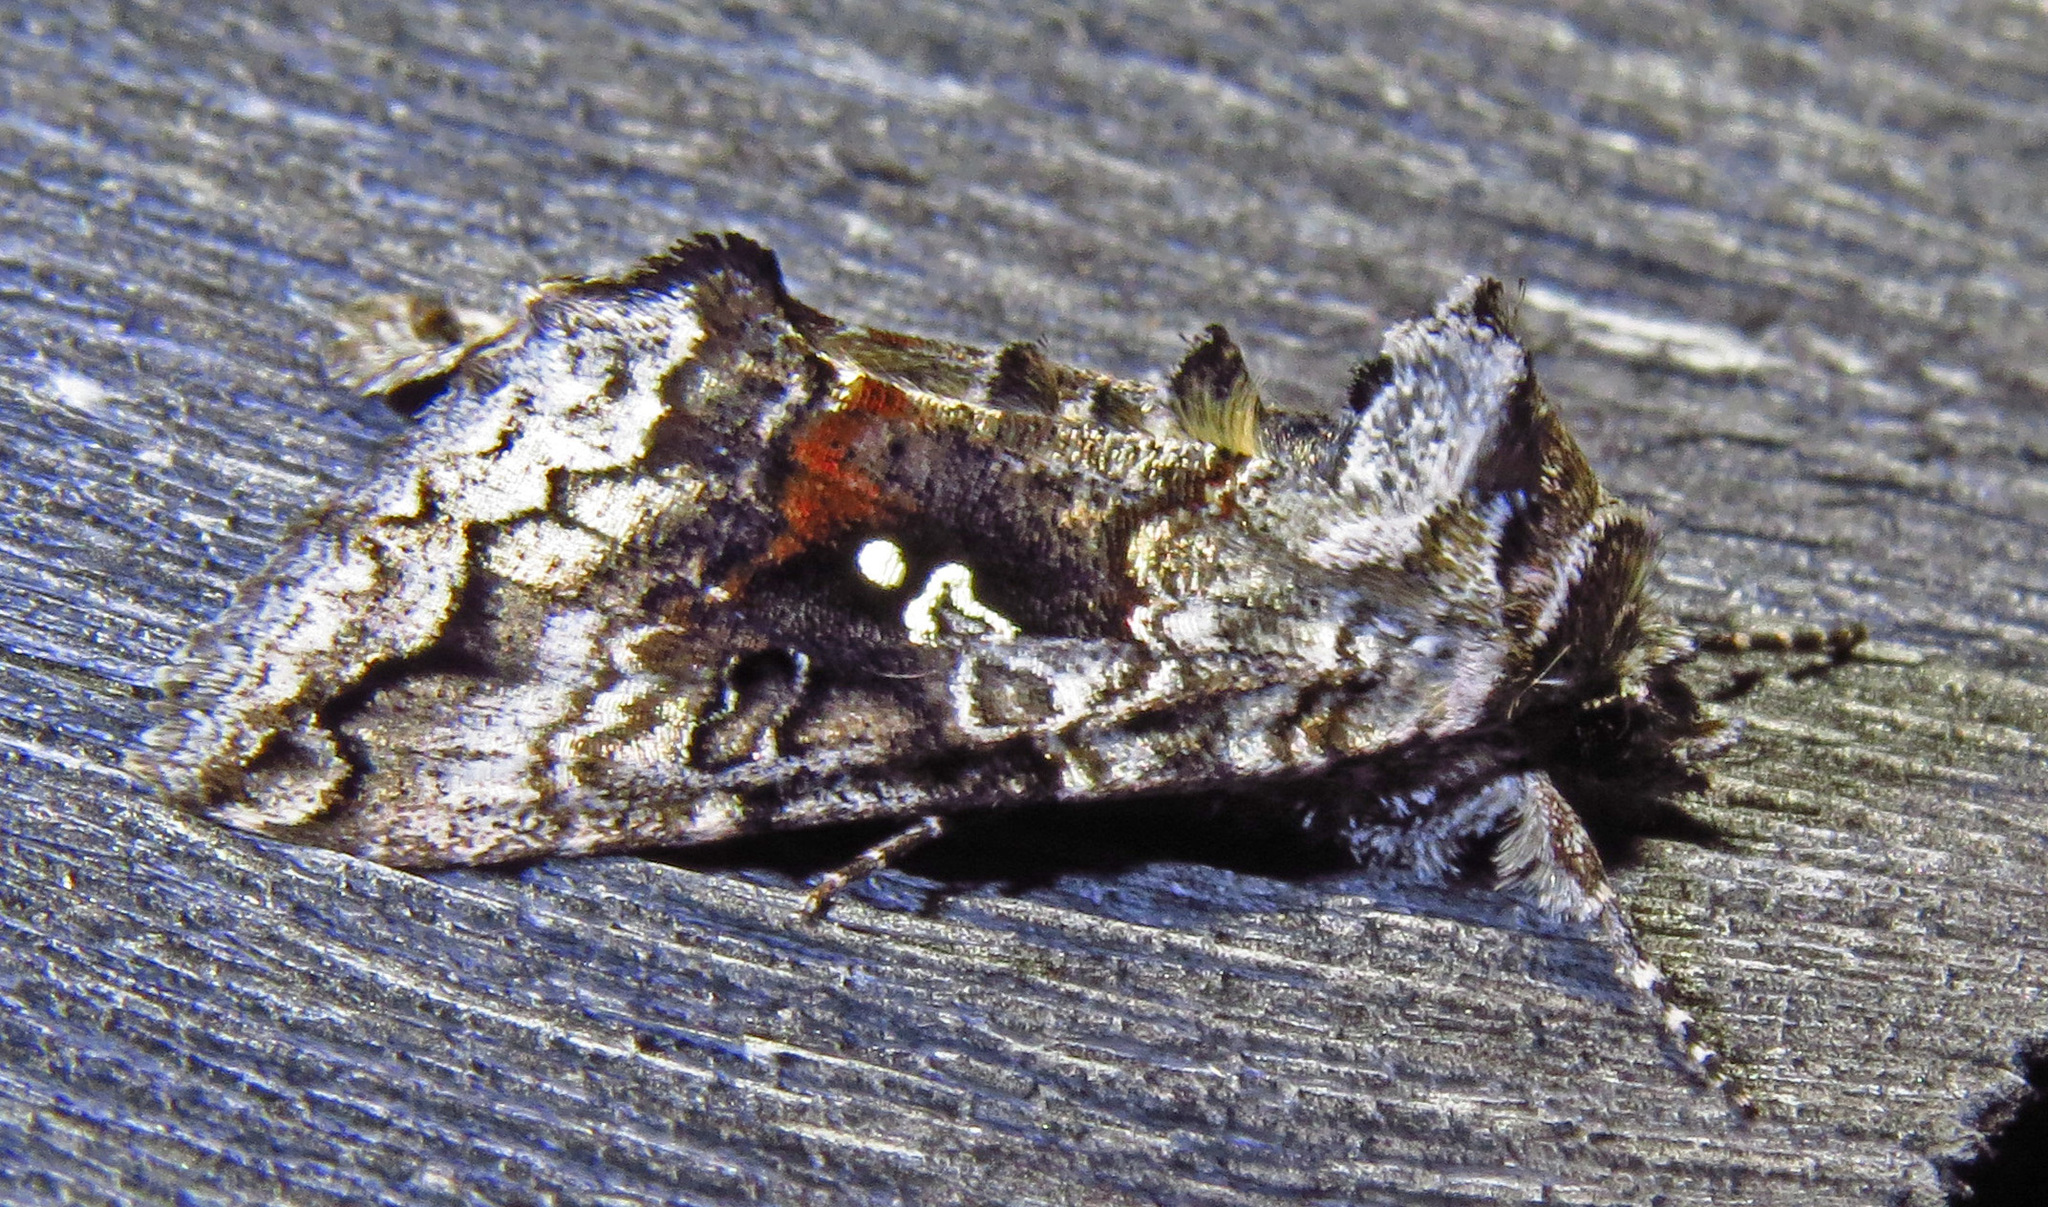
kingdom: Animalia
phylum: Arthropoda
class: Insecta
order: Lepidoptera
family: Noctuidae
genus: Syngrapha
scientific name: Syngrapha octoscripta
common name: Dusky silver y moth
